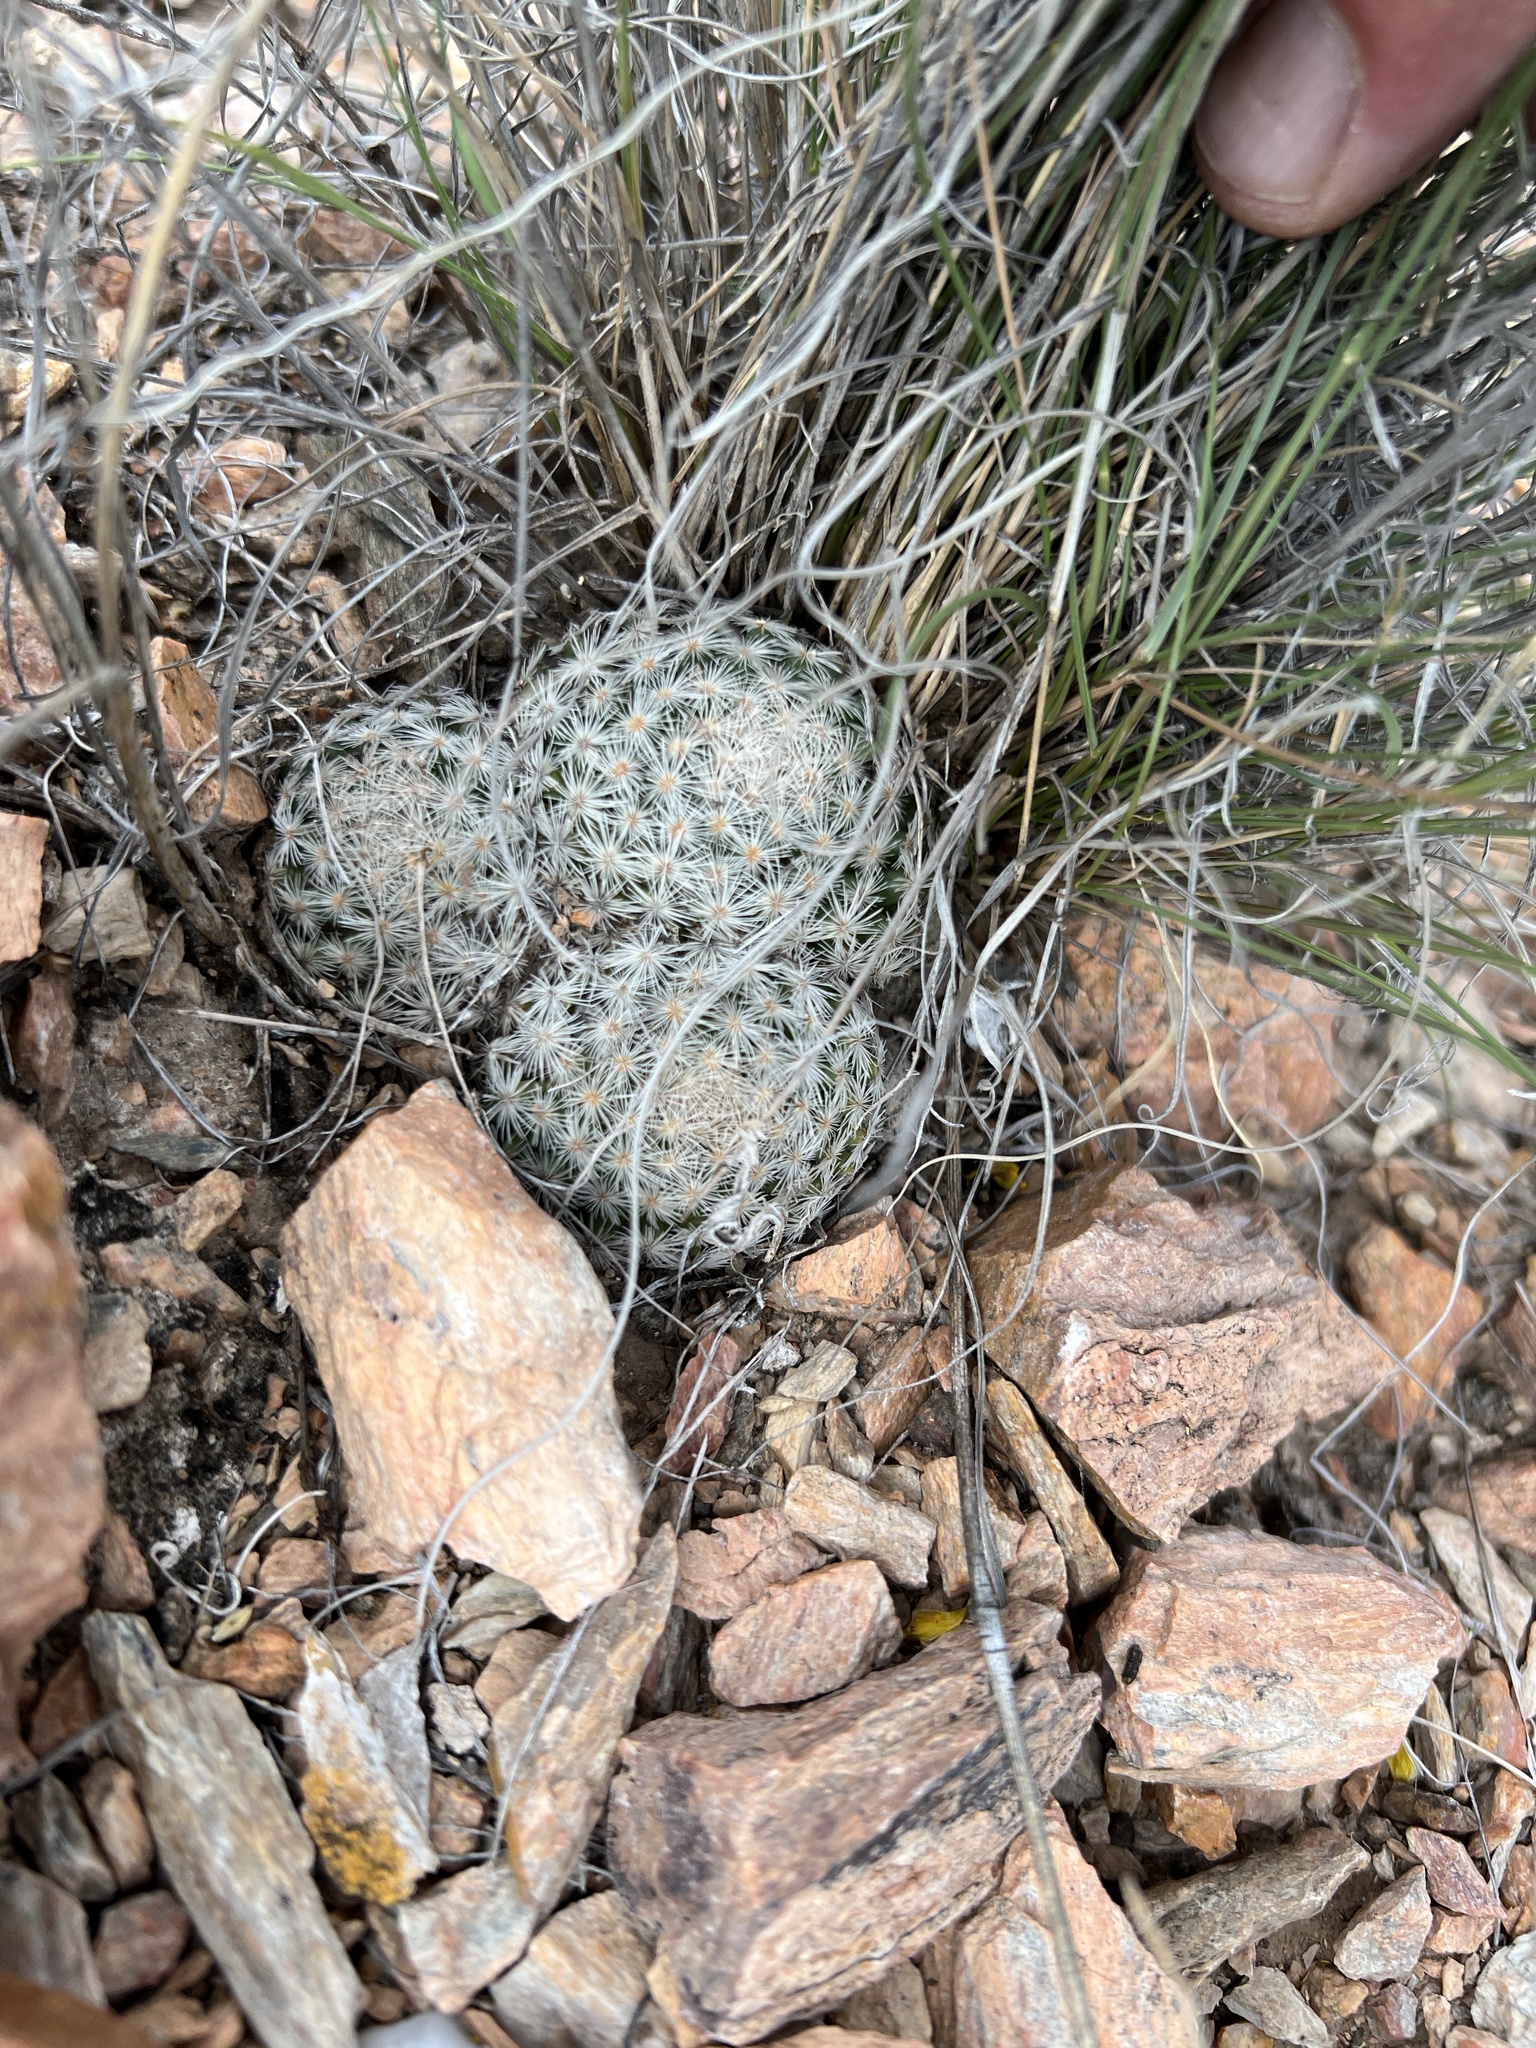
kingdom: Plantae
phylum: Tracheophyta
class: Magnoliopsida
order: Caryophyllales
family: Cactaceae
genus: Mammillaria
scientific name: Mammillaria lasiacantha
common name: Lace-spine nipple cactus
